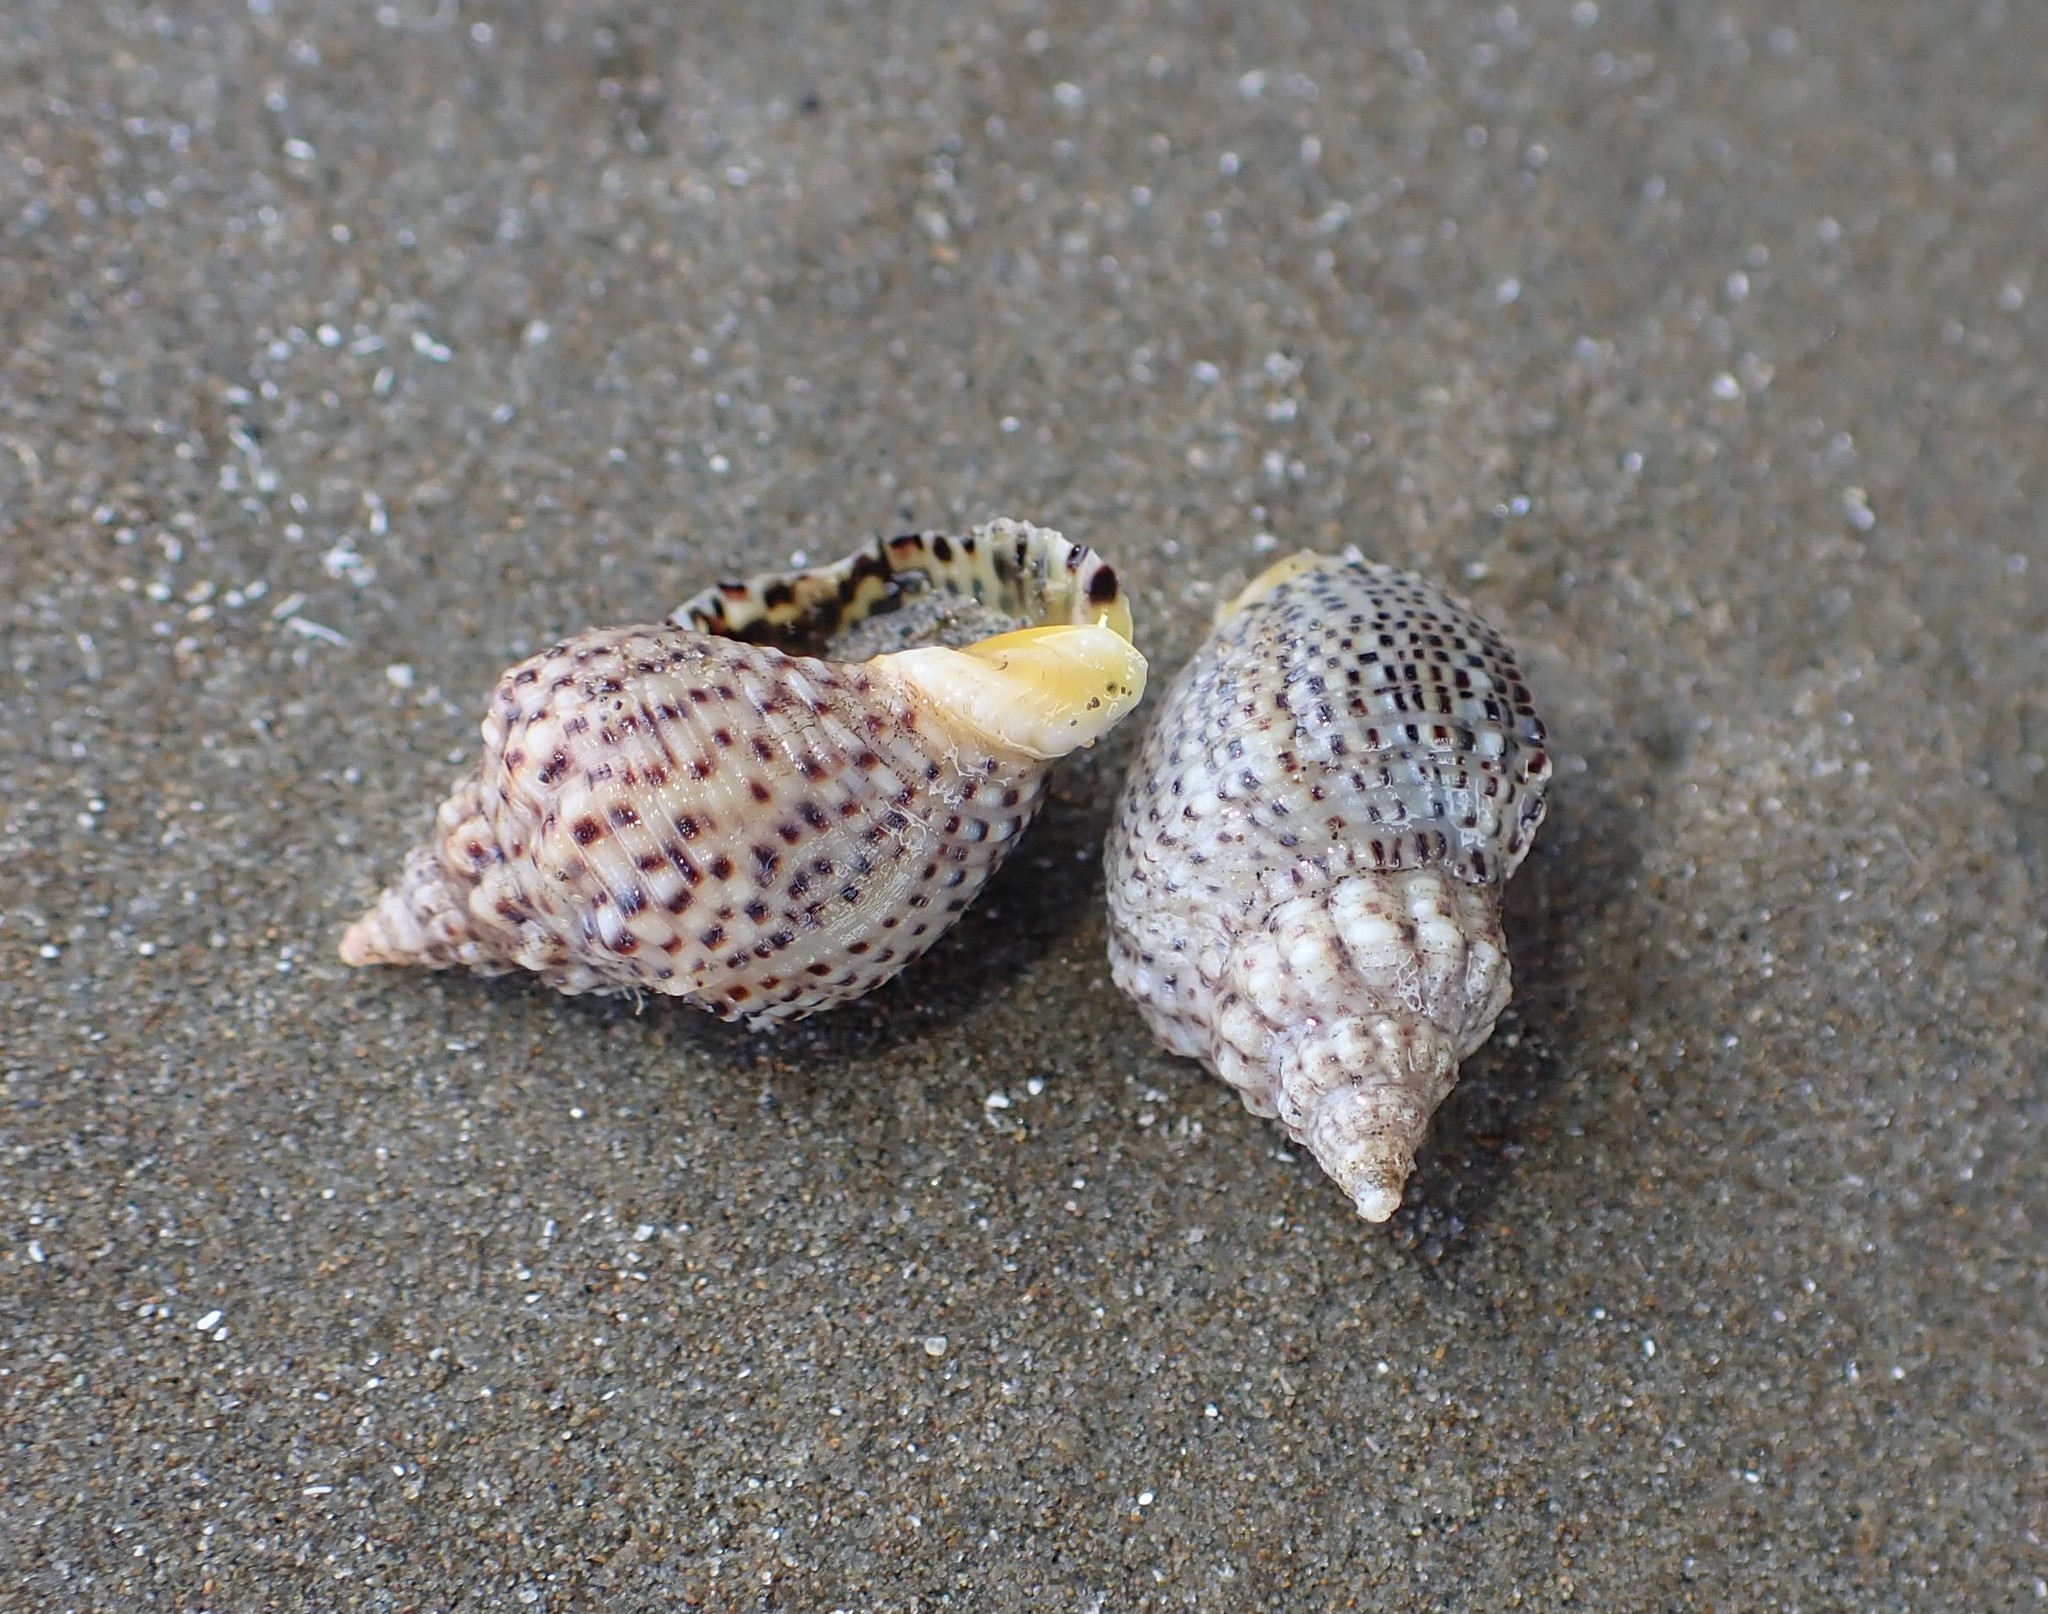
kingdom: Animalia
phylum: Mollusca
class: Gastropoda
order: Neogastropoda
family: Cominellidae
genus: Cominella
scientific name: Cominella adspersa
